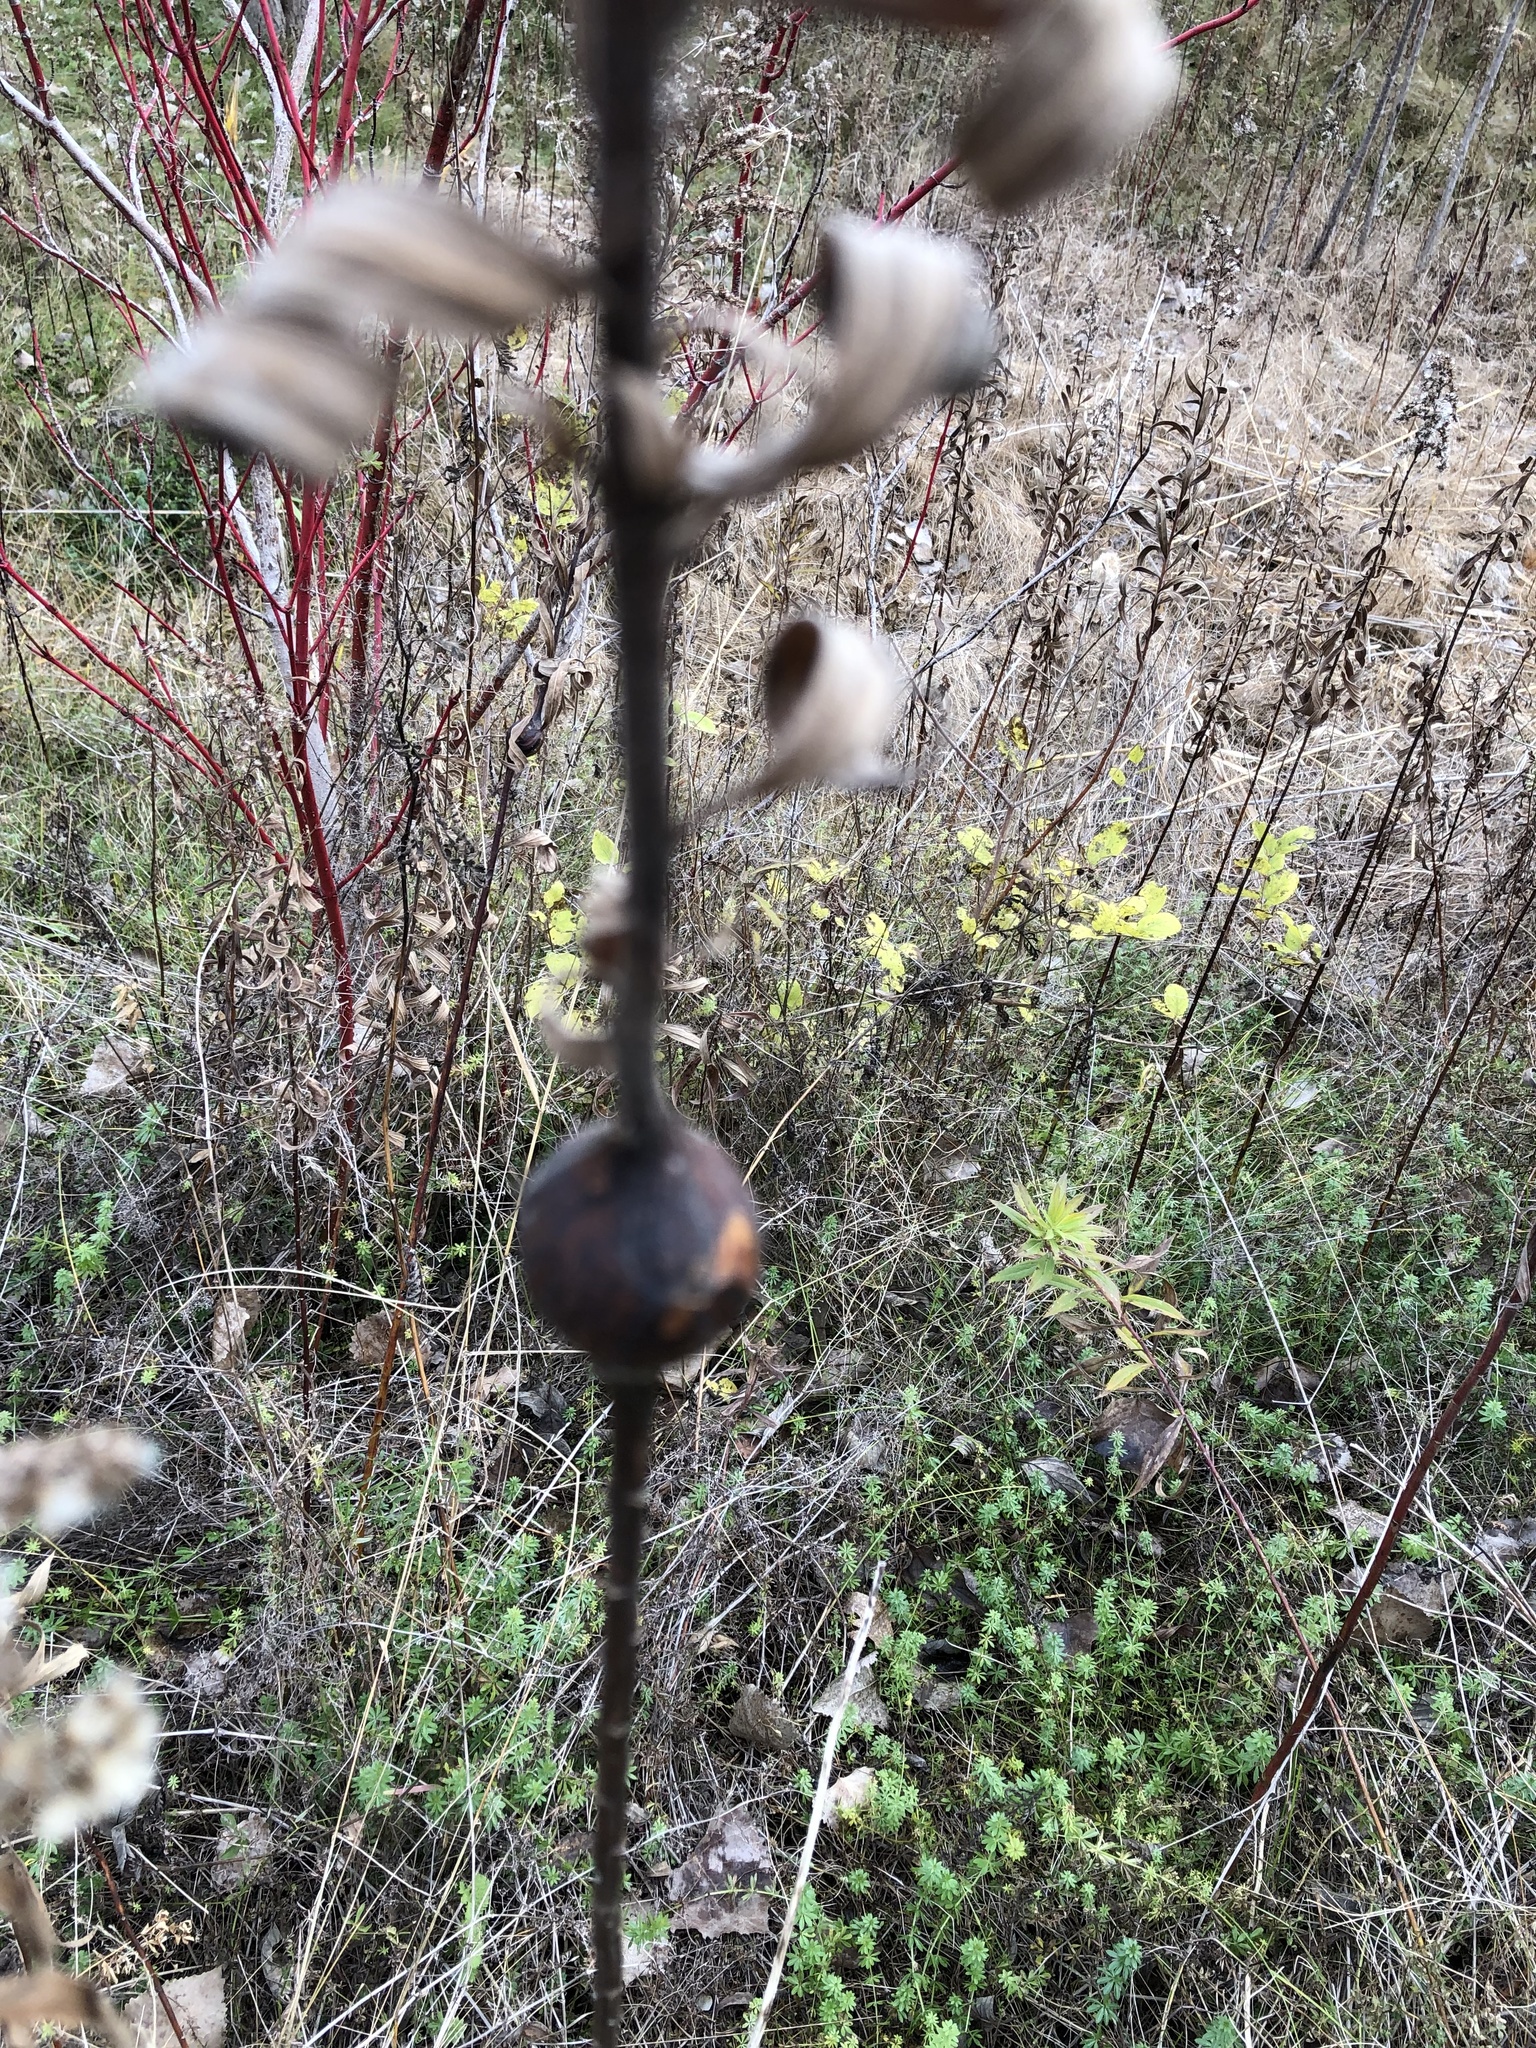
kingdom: Animalia
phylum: Arthropoda
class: Insecta
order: Diptera
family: Tephritidae
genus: Eurosta
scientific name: Eurosta solidaginis
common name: Goldenrod gall fly
